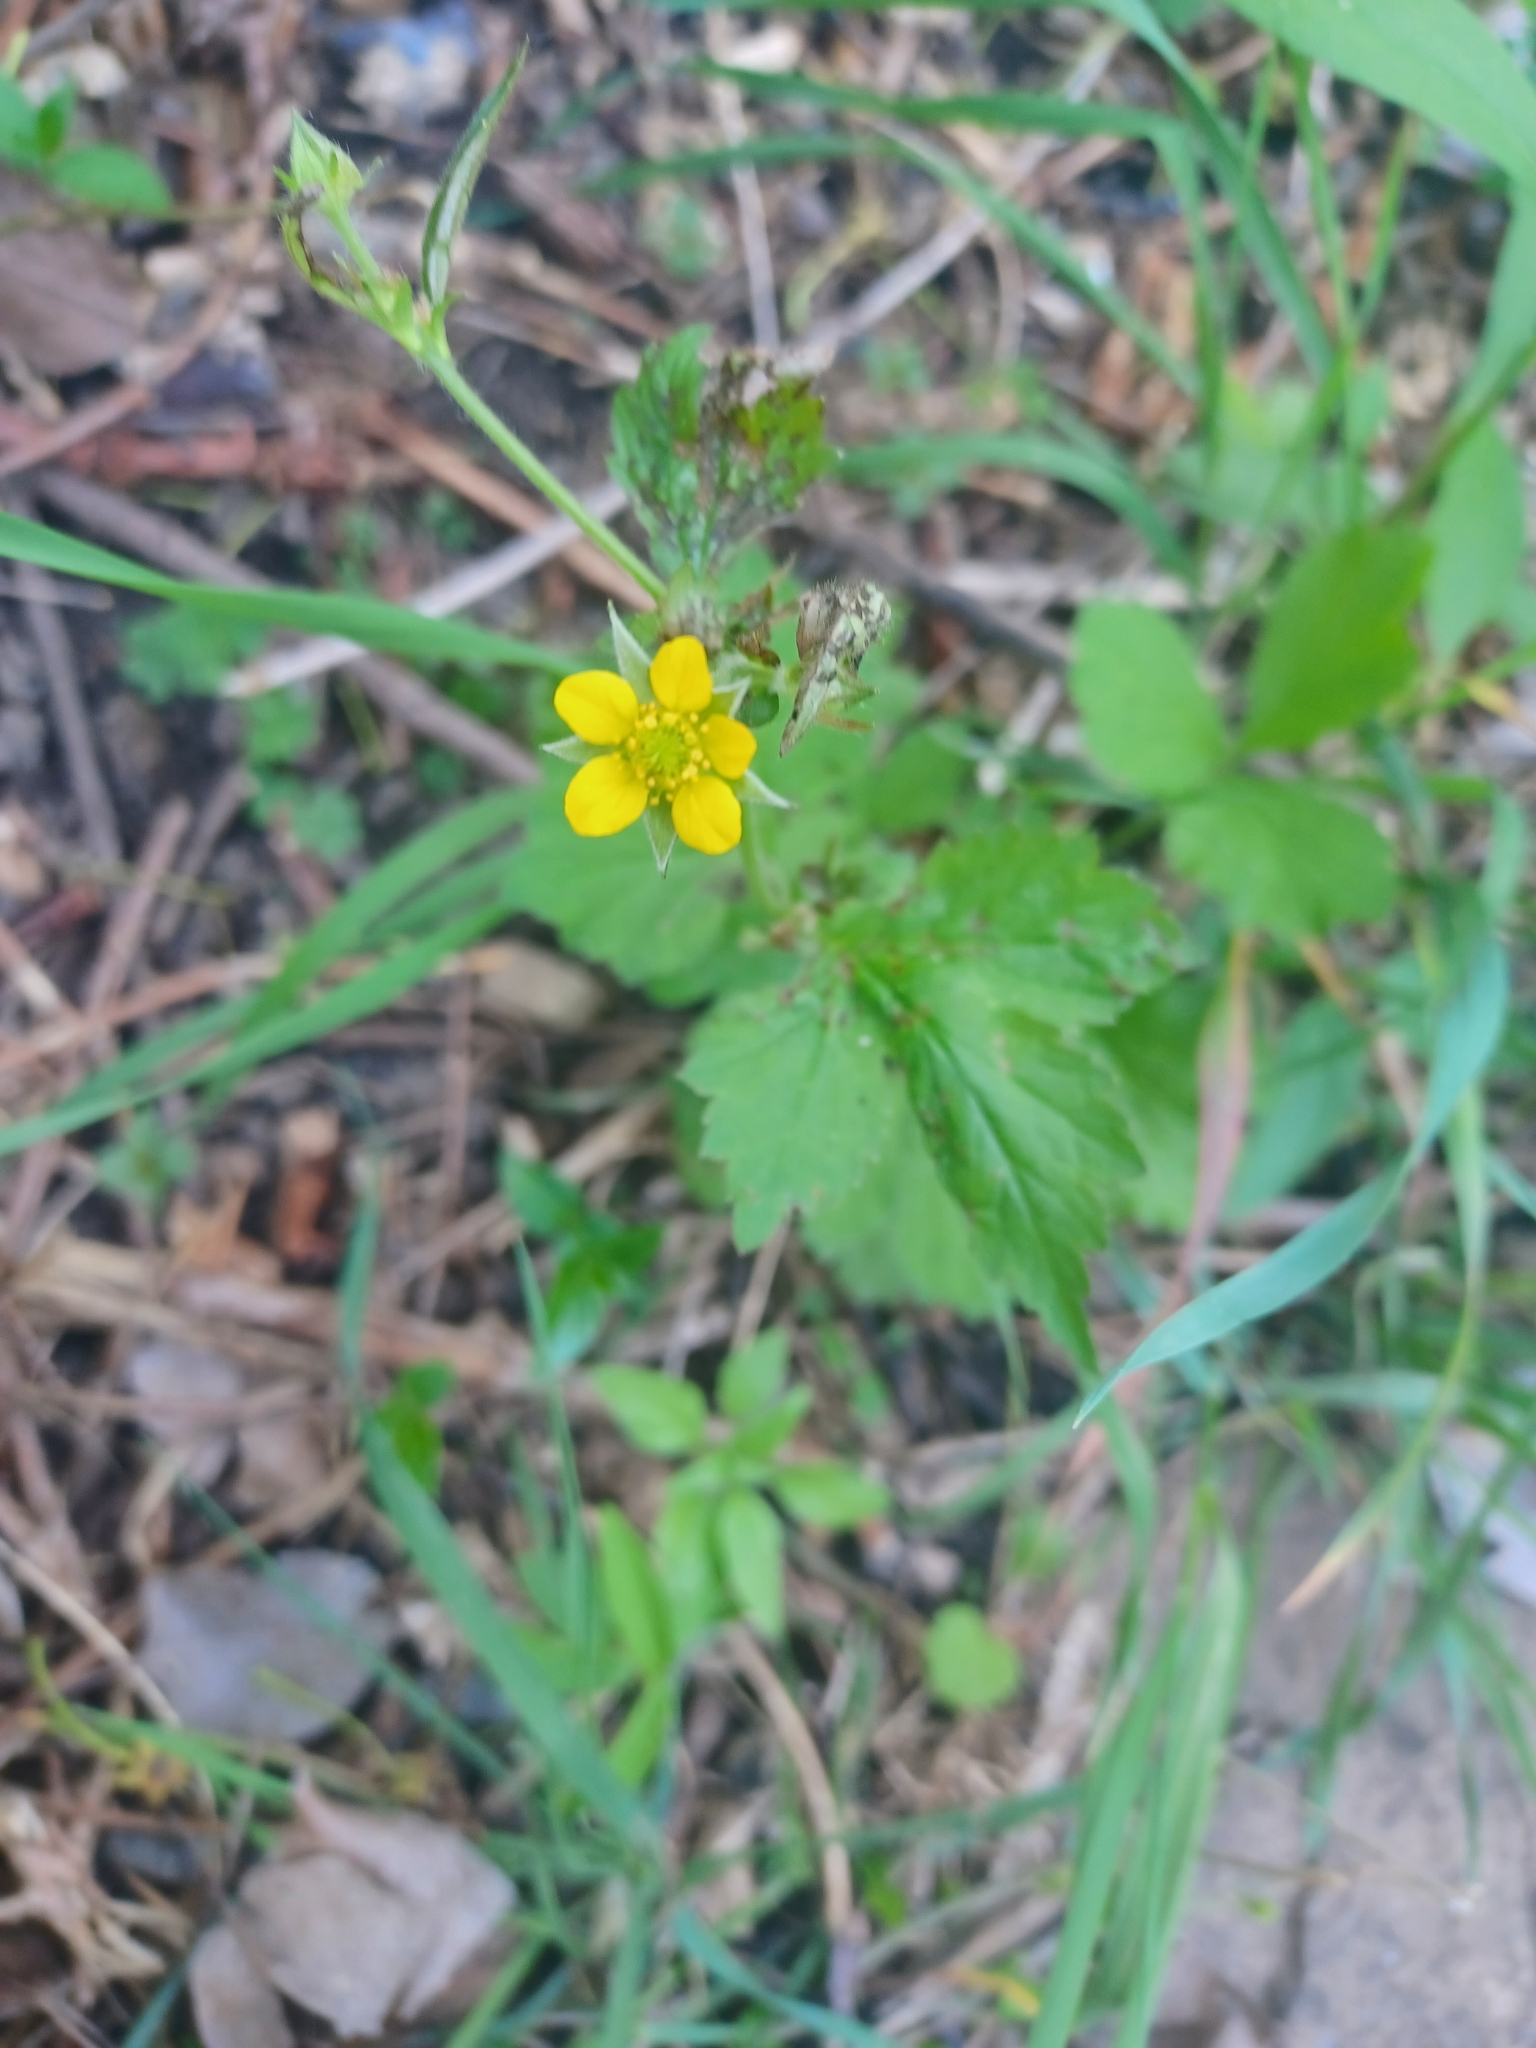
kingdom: Plantae
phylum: Tracheophyta
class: Magnoliopsida
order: Rosales
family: Rosaceae
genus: Geum
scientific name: Geum urbanum
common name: Wood avens
